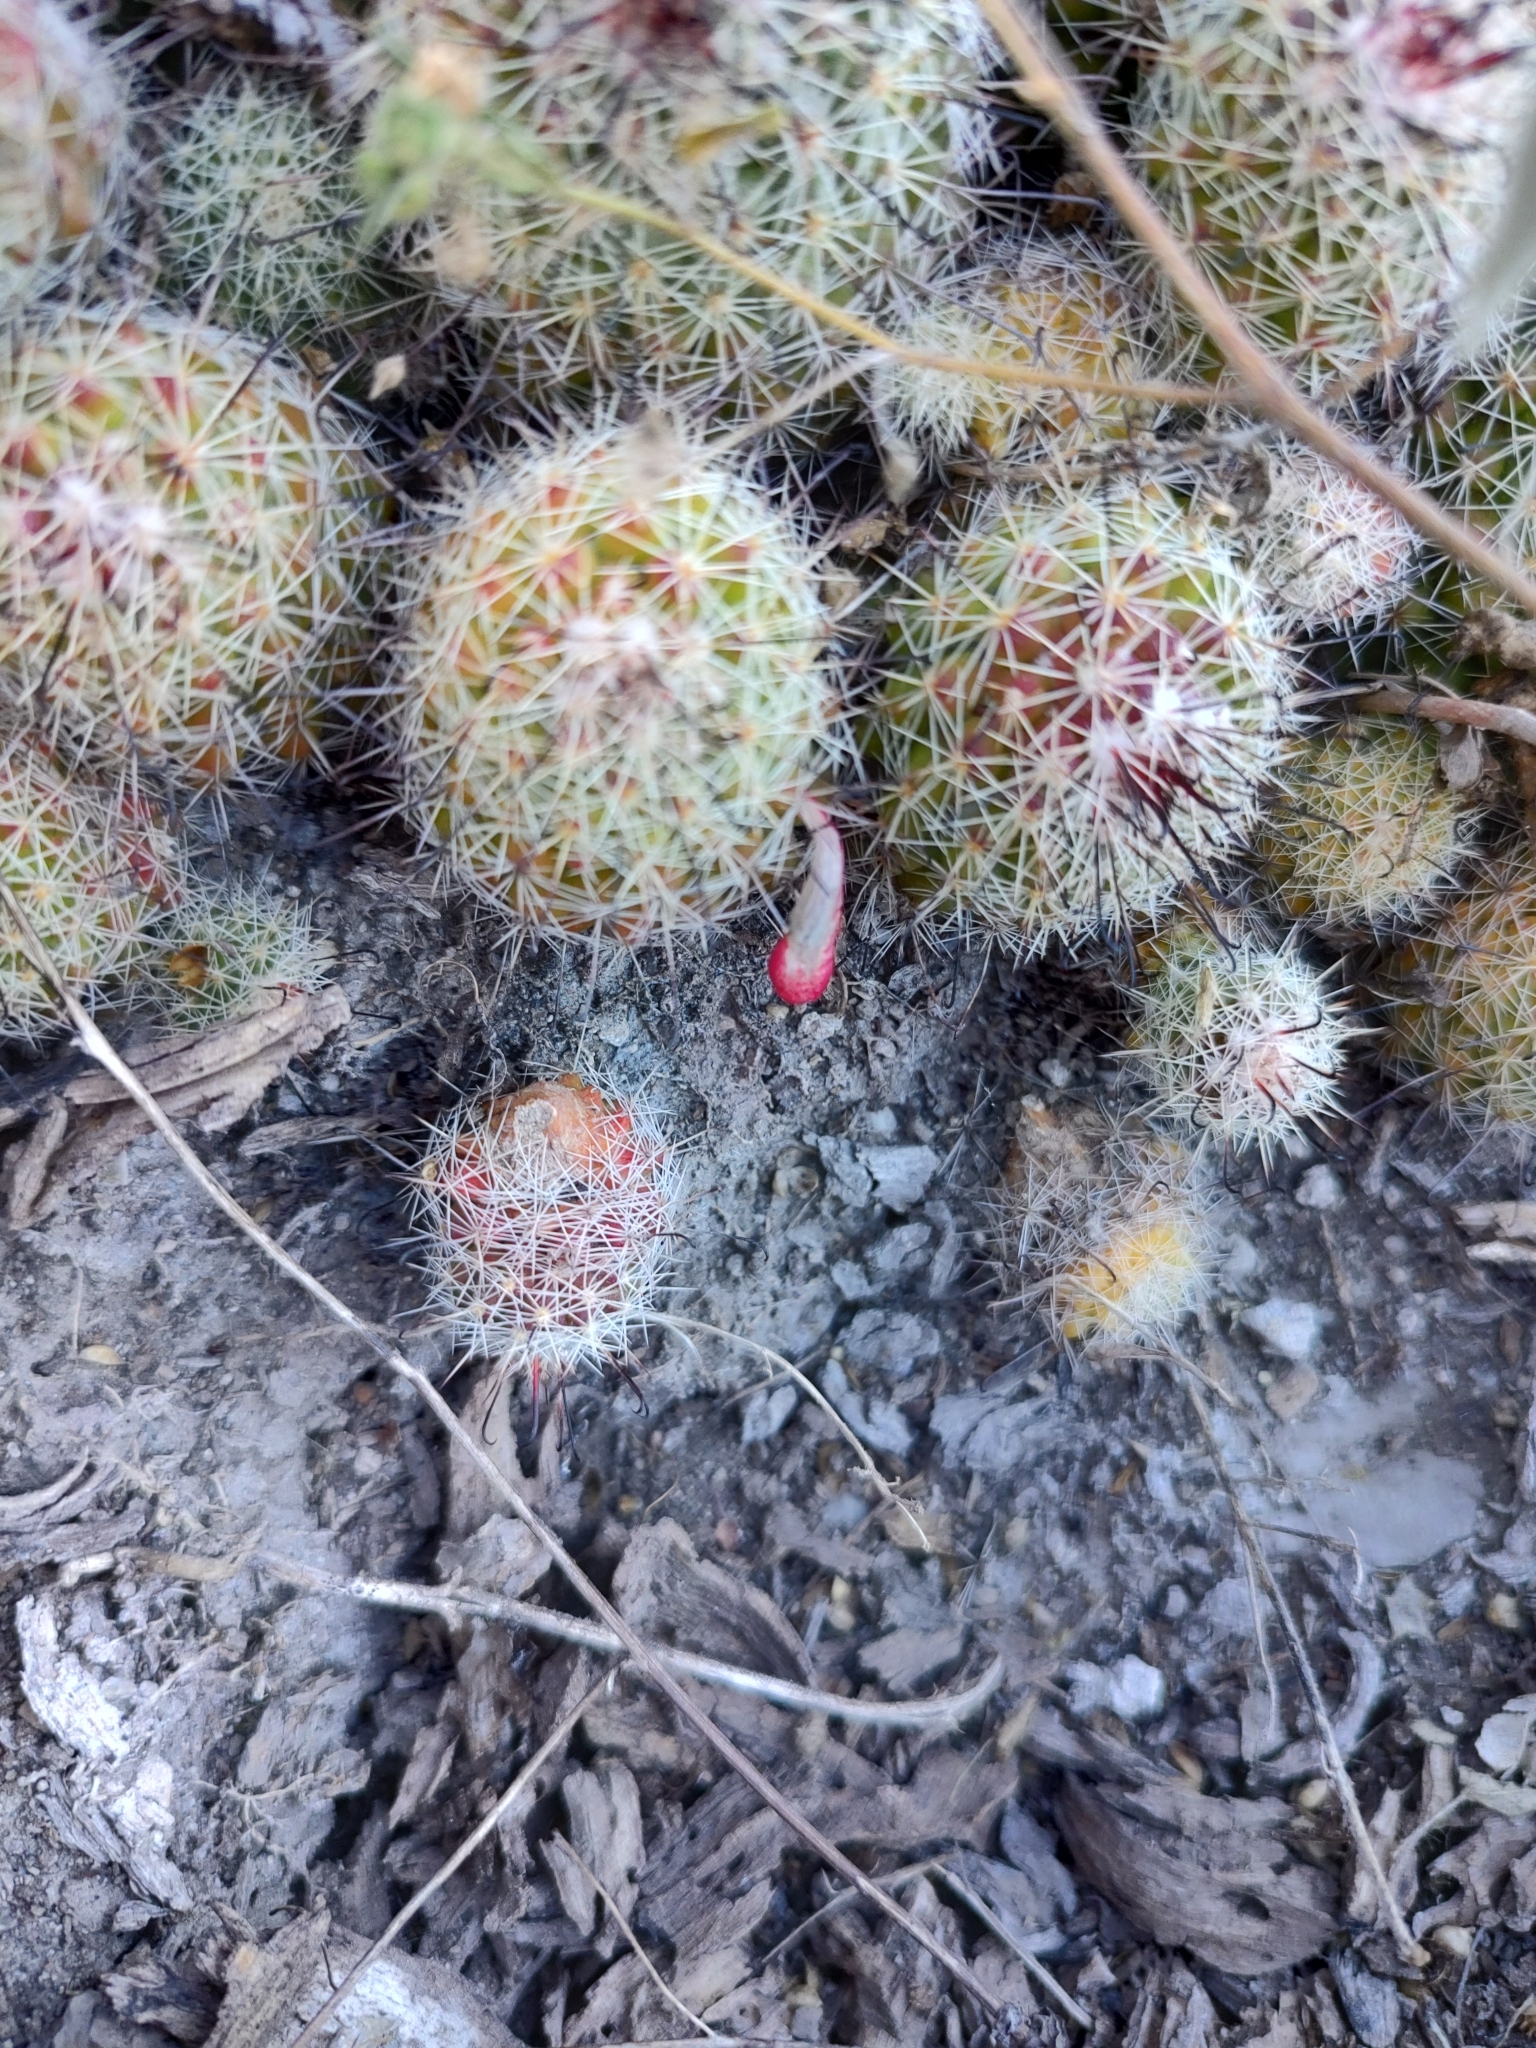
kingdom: Plantae
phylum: Tracheophyta
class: Magnoliopsida
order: Caryophyllales
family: Cactaceae
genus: Mammillaria
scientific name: Mammillaria beneckei
